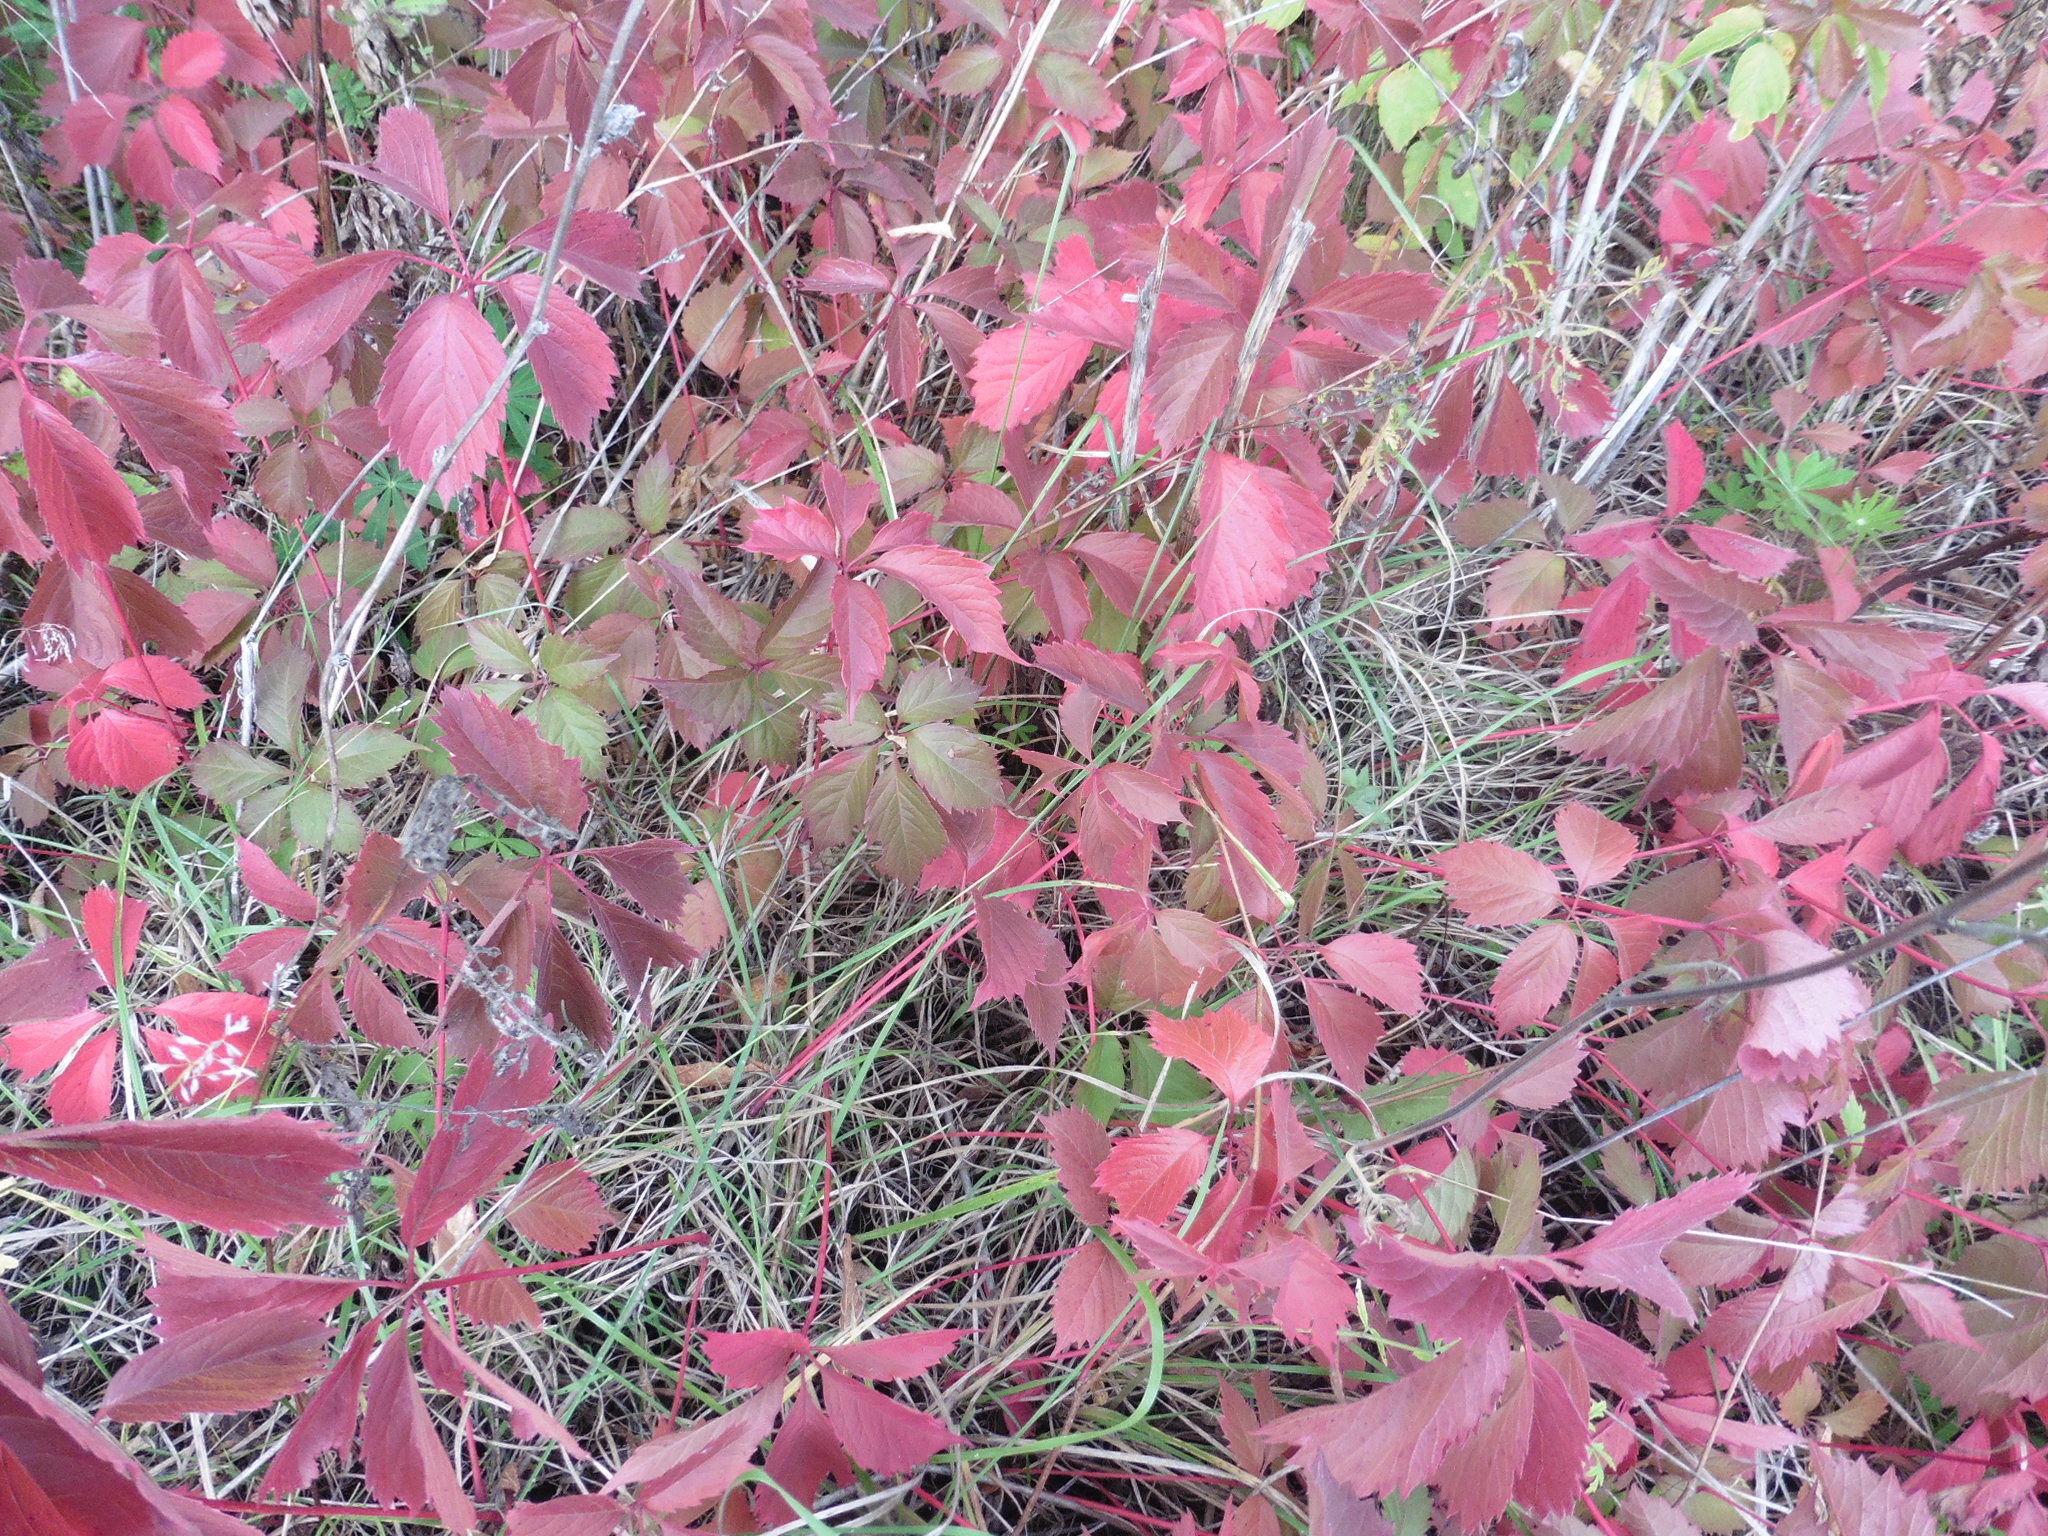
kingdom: Plantae
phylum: Tracheophyta
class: Magnoliopsida
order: Vitales
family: Vitaceae
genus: Parthenocissus
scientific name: Parthenocissus inserta
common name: False virginia-creeper
